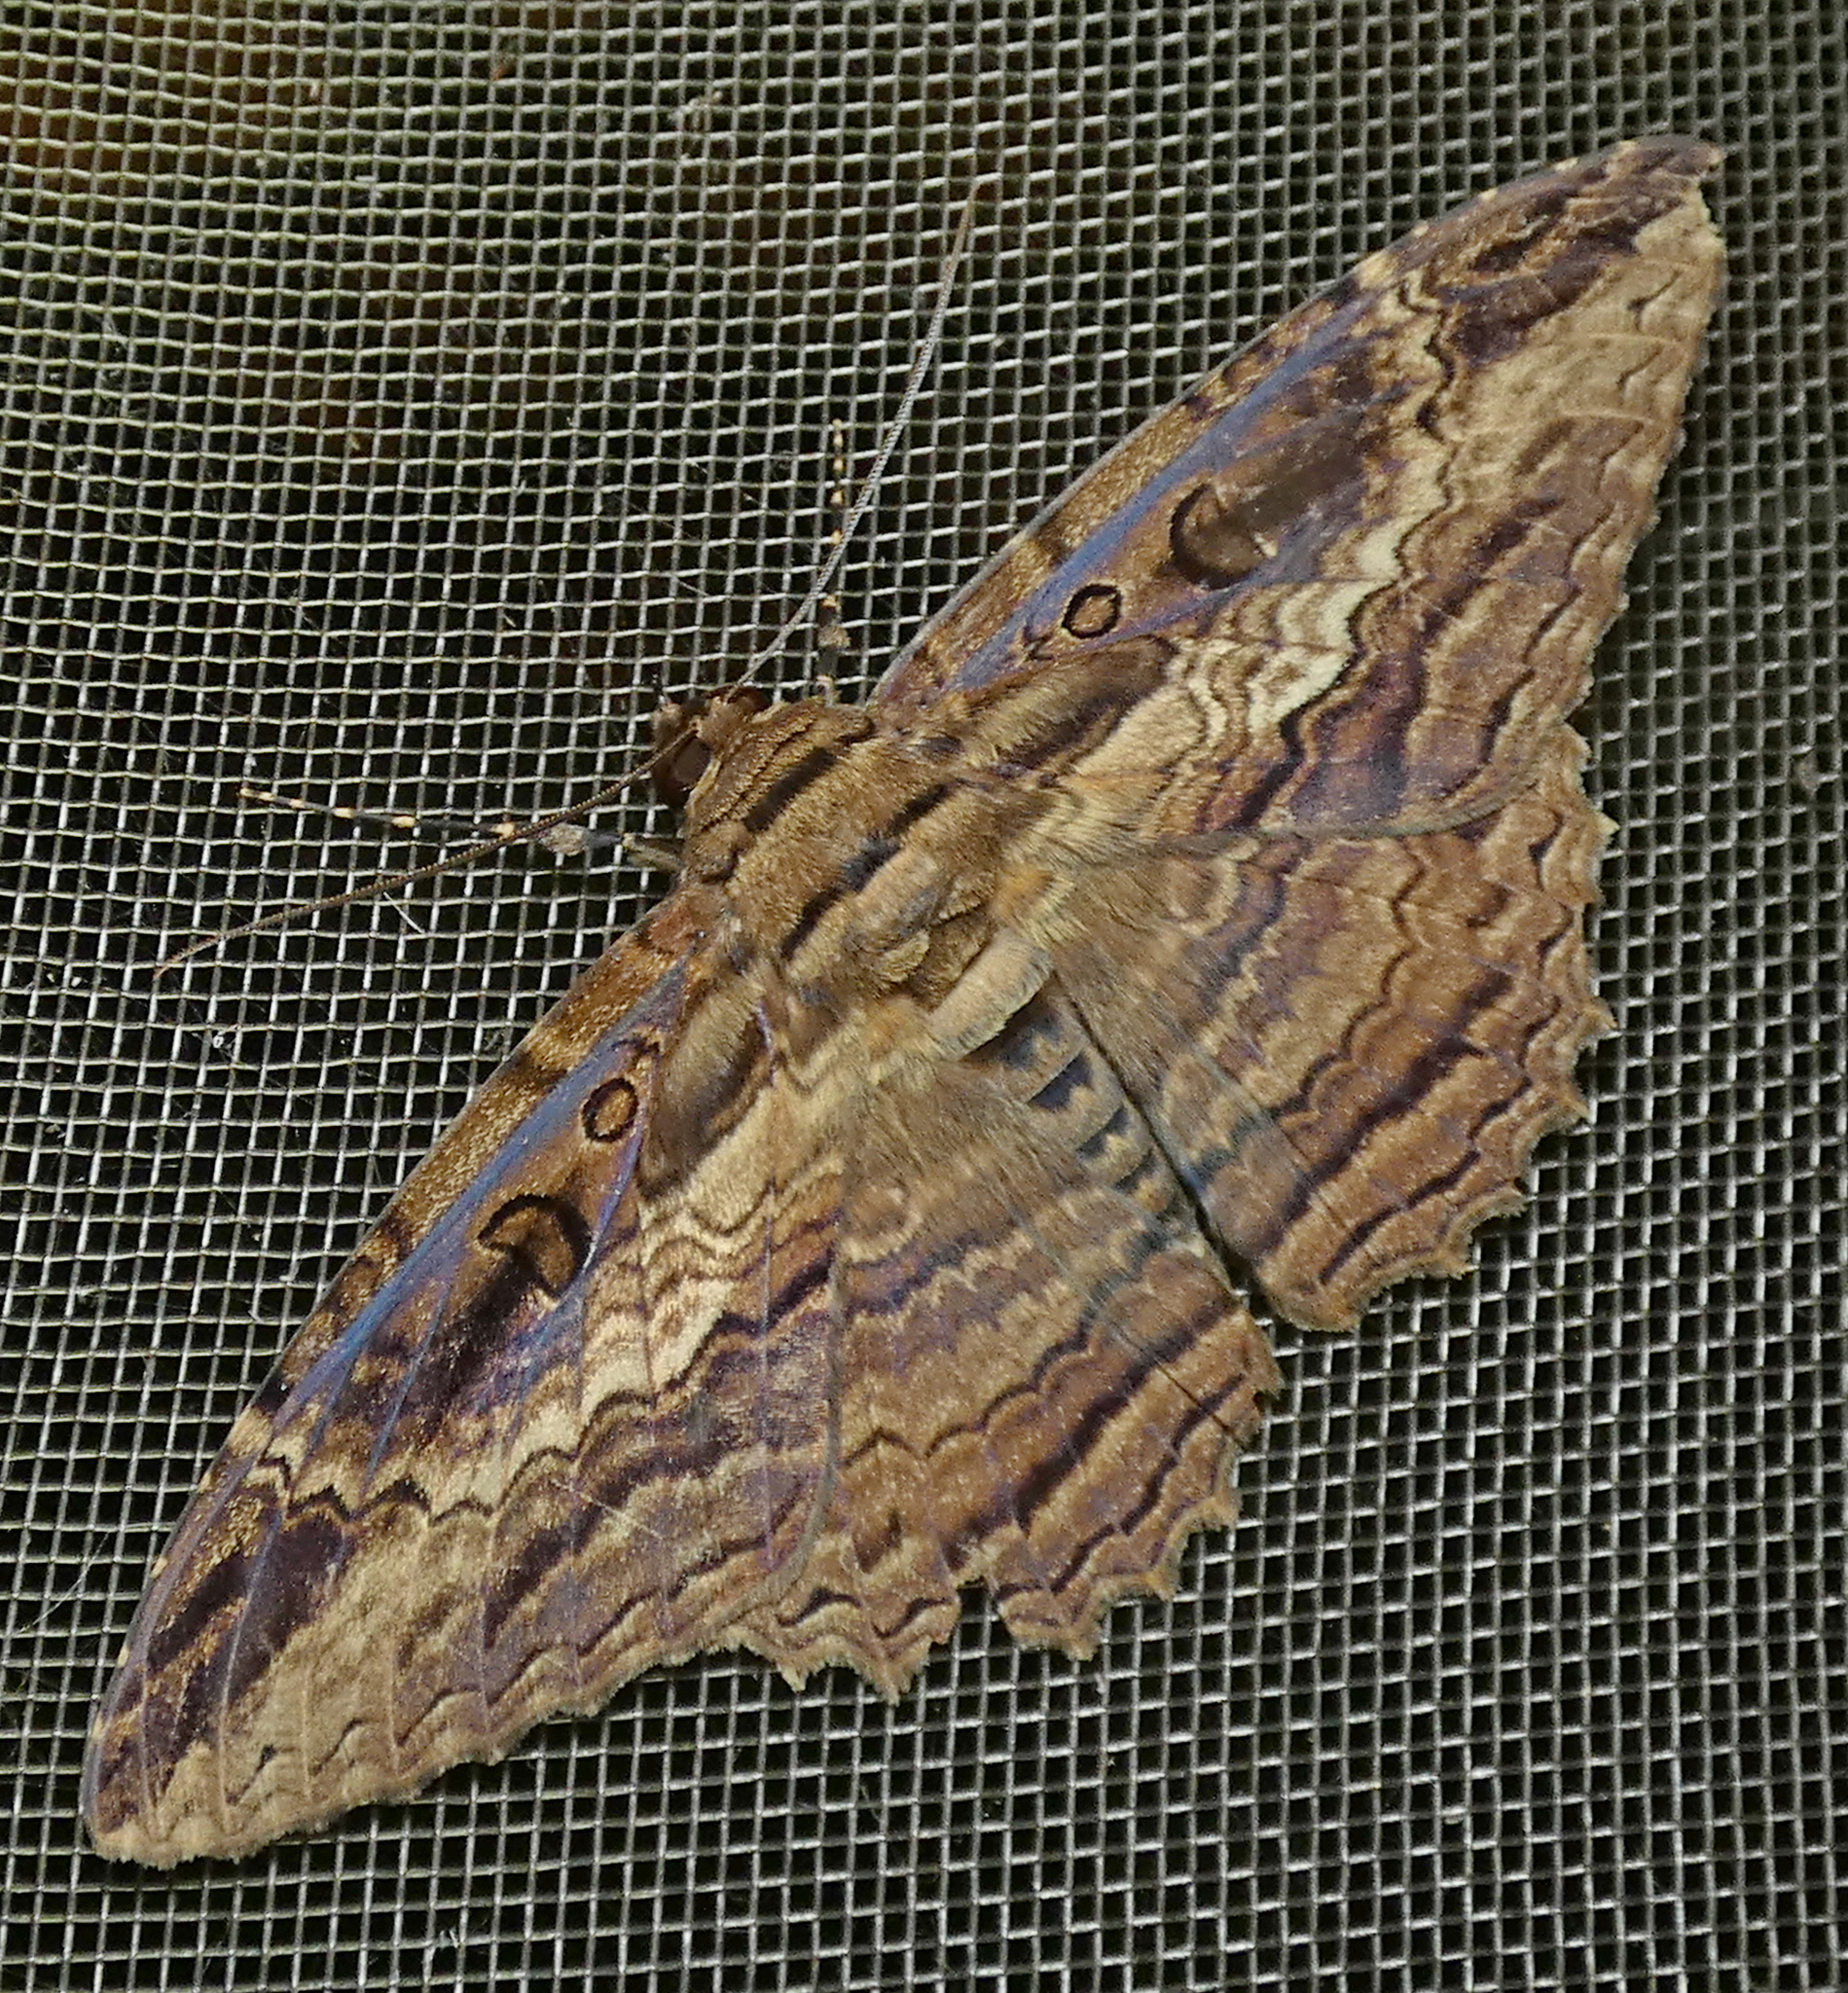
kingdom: Animalia
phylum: Arthropoda
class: Insecta
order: Lepidoptera
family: Erebidae
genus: Feigeria
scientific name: Feigeria buteo
